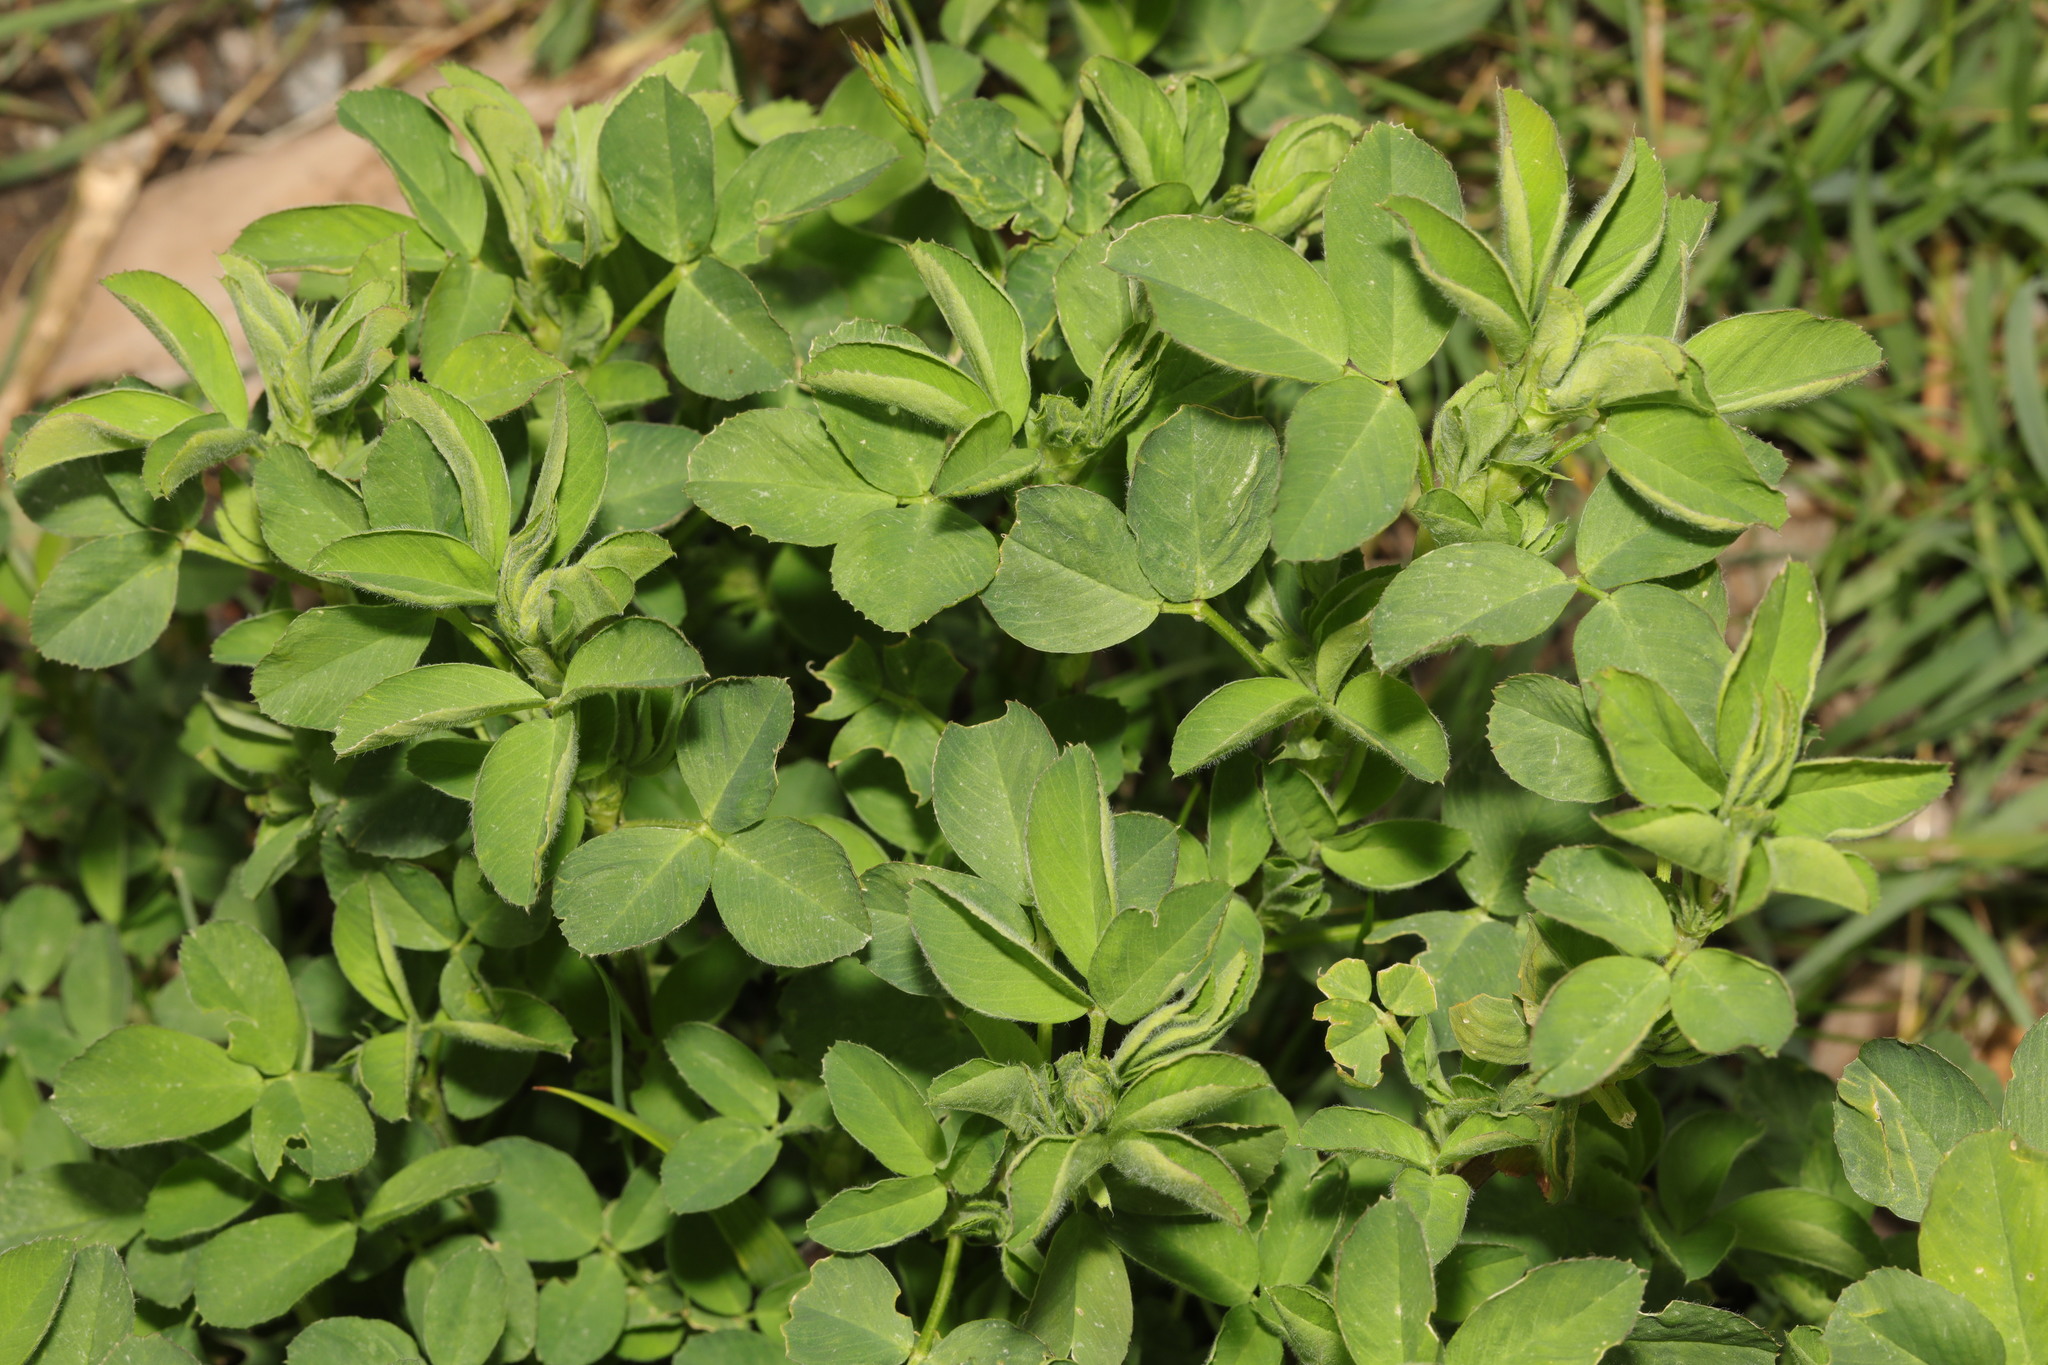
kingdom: Plantae
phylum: Tracheophyta
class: Magnoliopsida
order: Fabales
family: Fabaceae
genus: Trifolium
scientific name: Trifolium pratense
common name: Red clover
